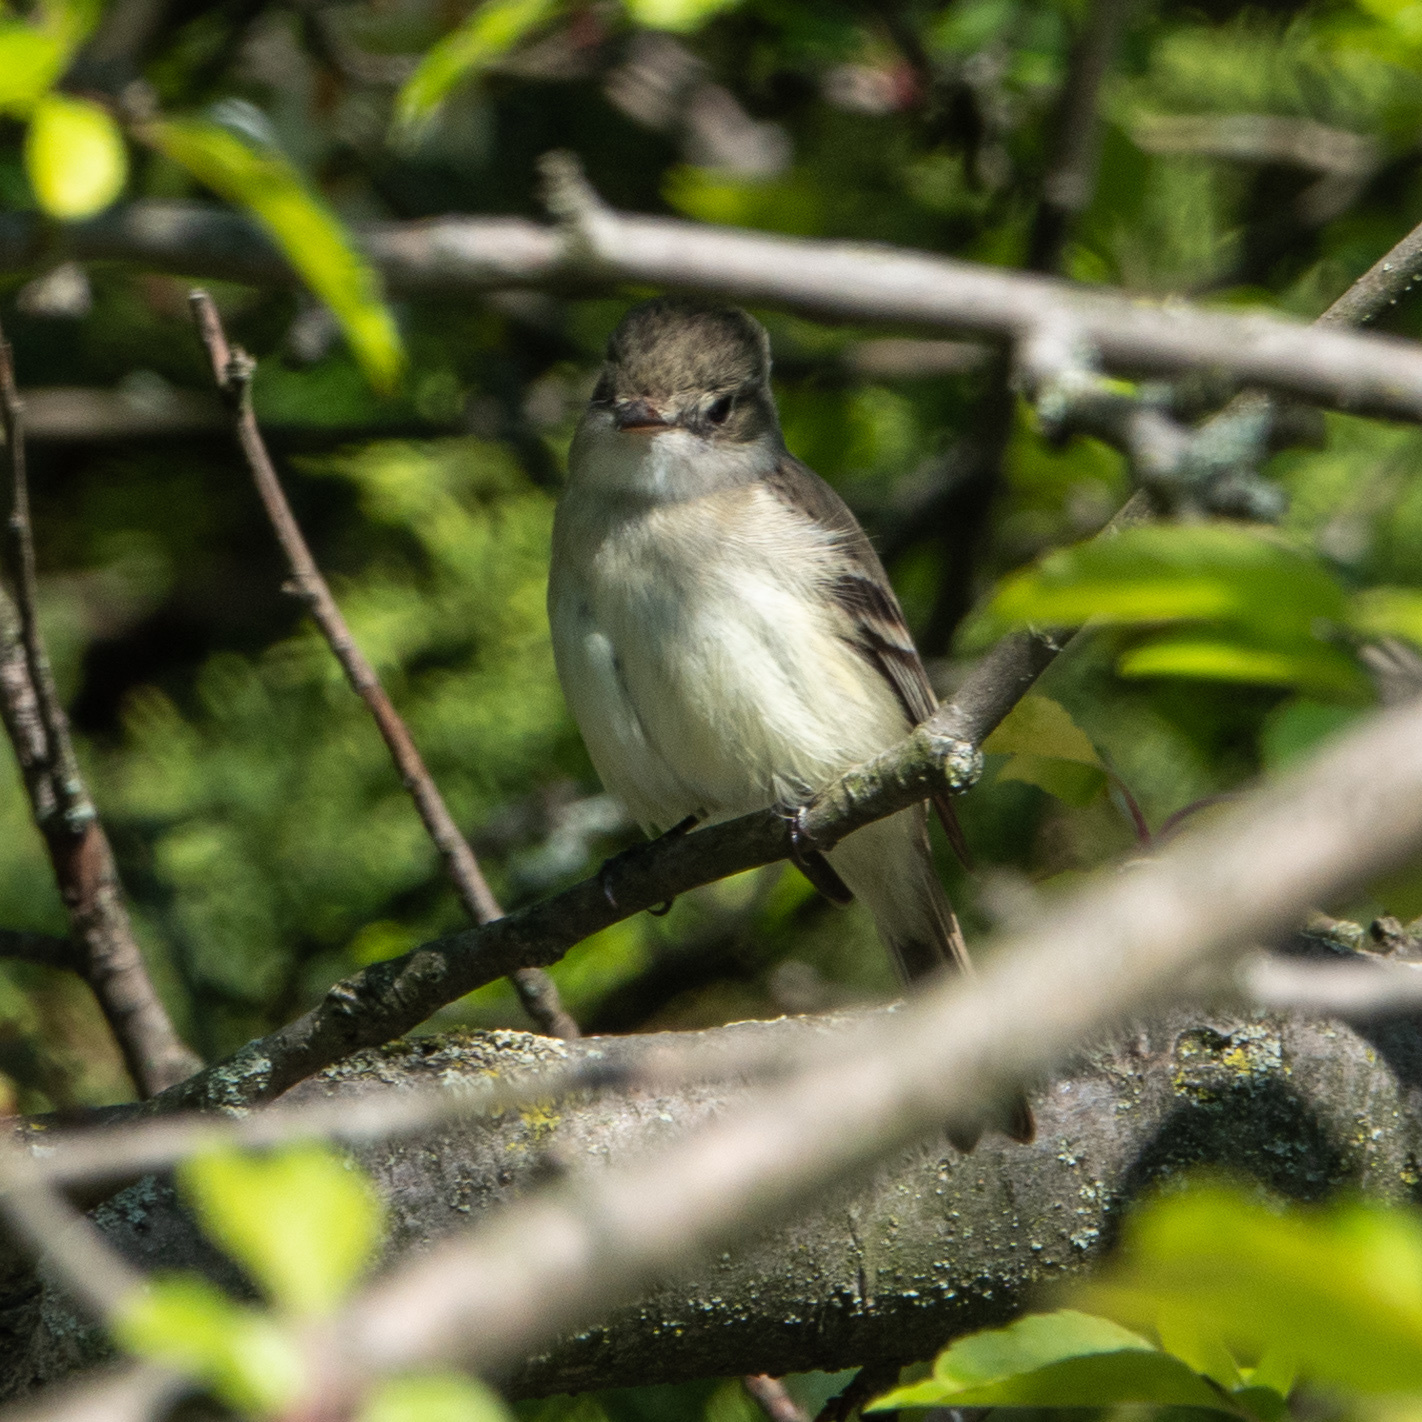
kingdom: Animalia
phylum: Chordata
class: Aves
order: Passeriformes
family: Tyrannidae
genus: Empidonax
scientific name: Empidonax minimus
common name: Least flycatcher
